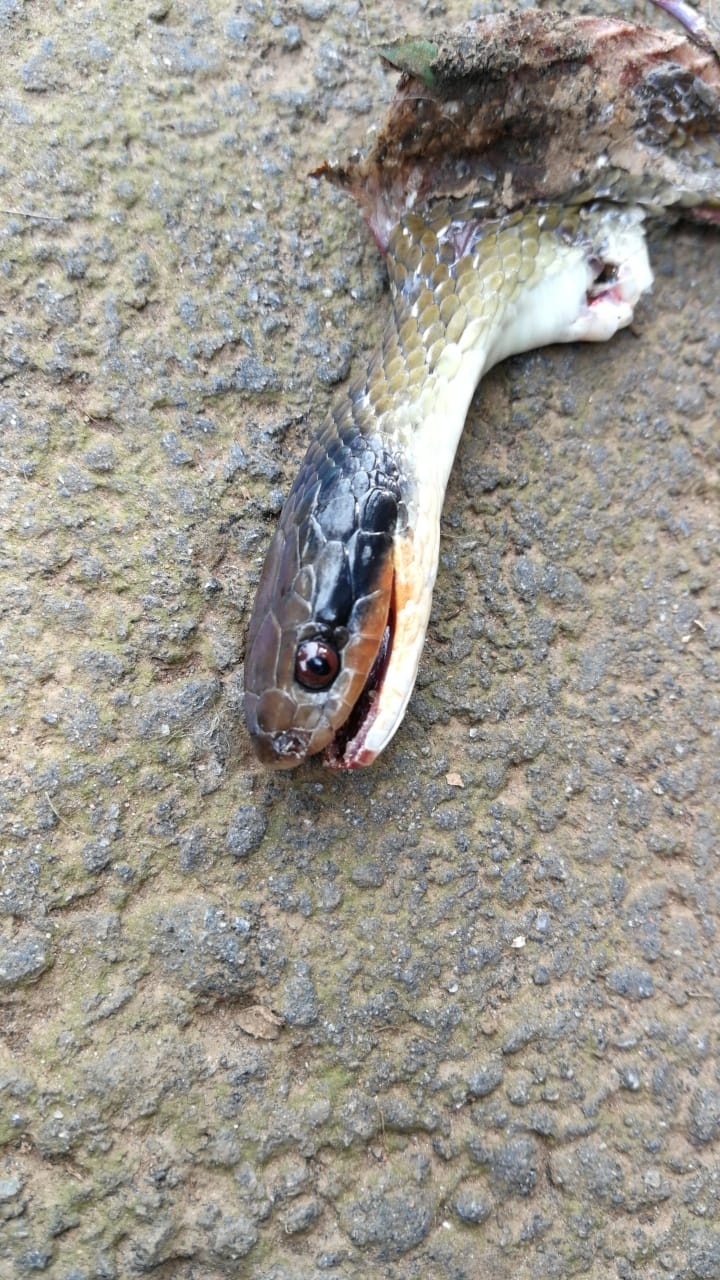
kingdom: Animalia
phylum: Chordata
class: Squamata
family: Colubridae
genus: Crotaphopeltis
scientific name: Crotaphopeltis hotamboeia
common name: Red-lipped snake
